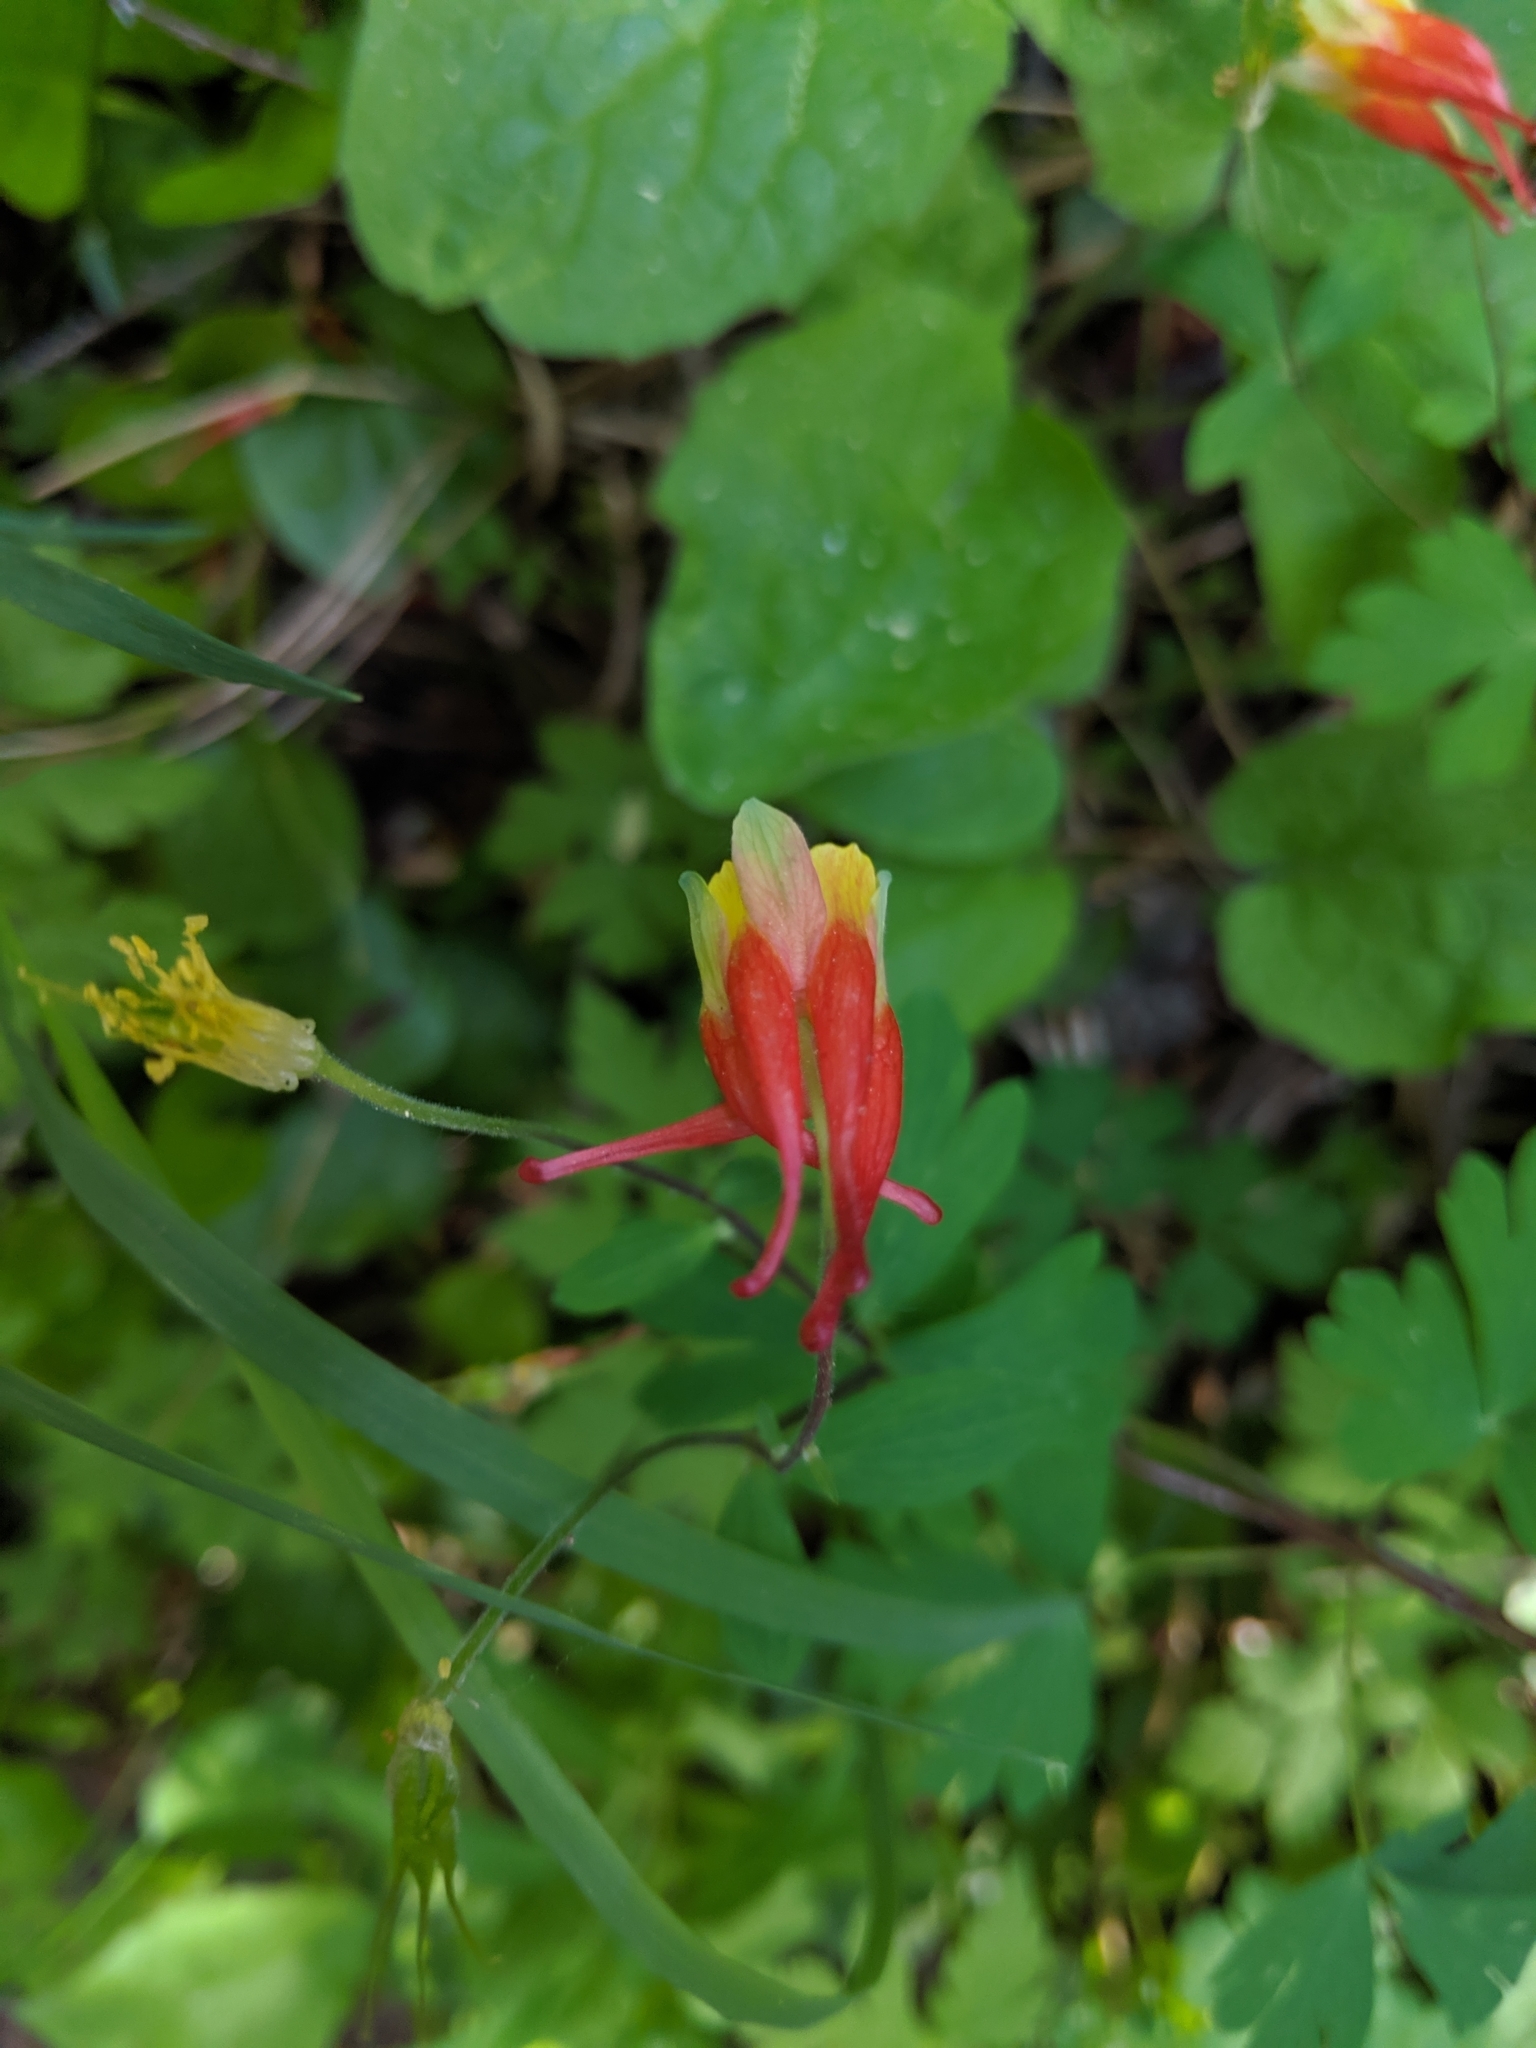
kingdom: Plantae
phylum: Tracheophyta
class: Magnoliopsida
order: Ranunculales
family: Ranunculaceae
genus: Aquilegia
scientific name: Aquilegia elegantula
